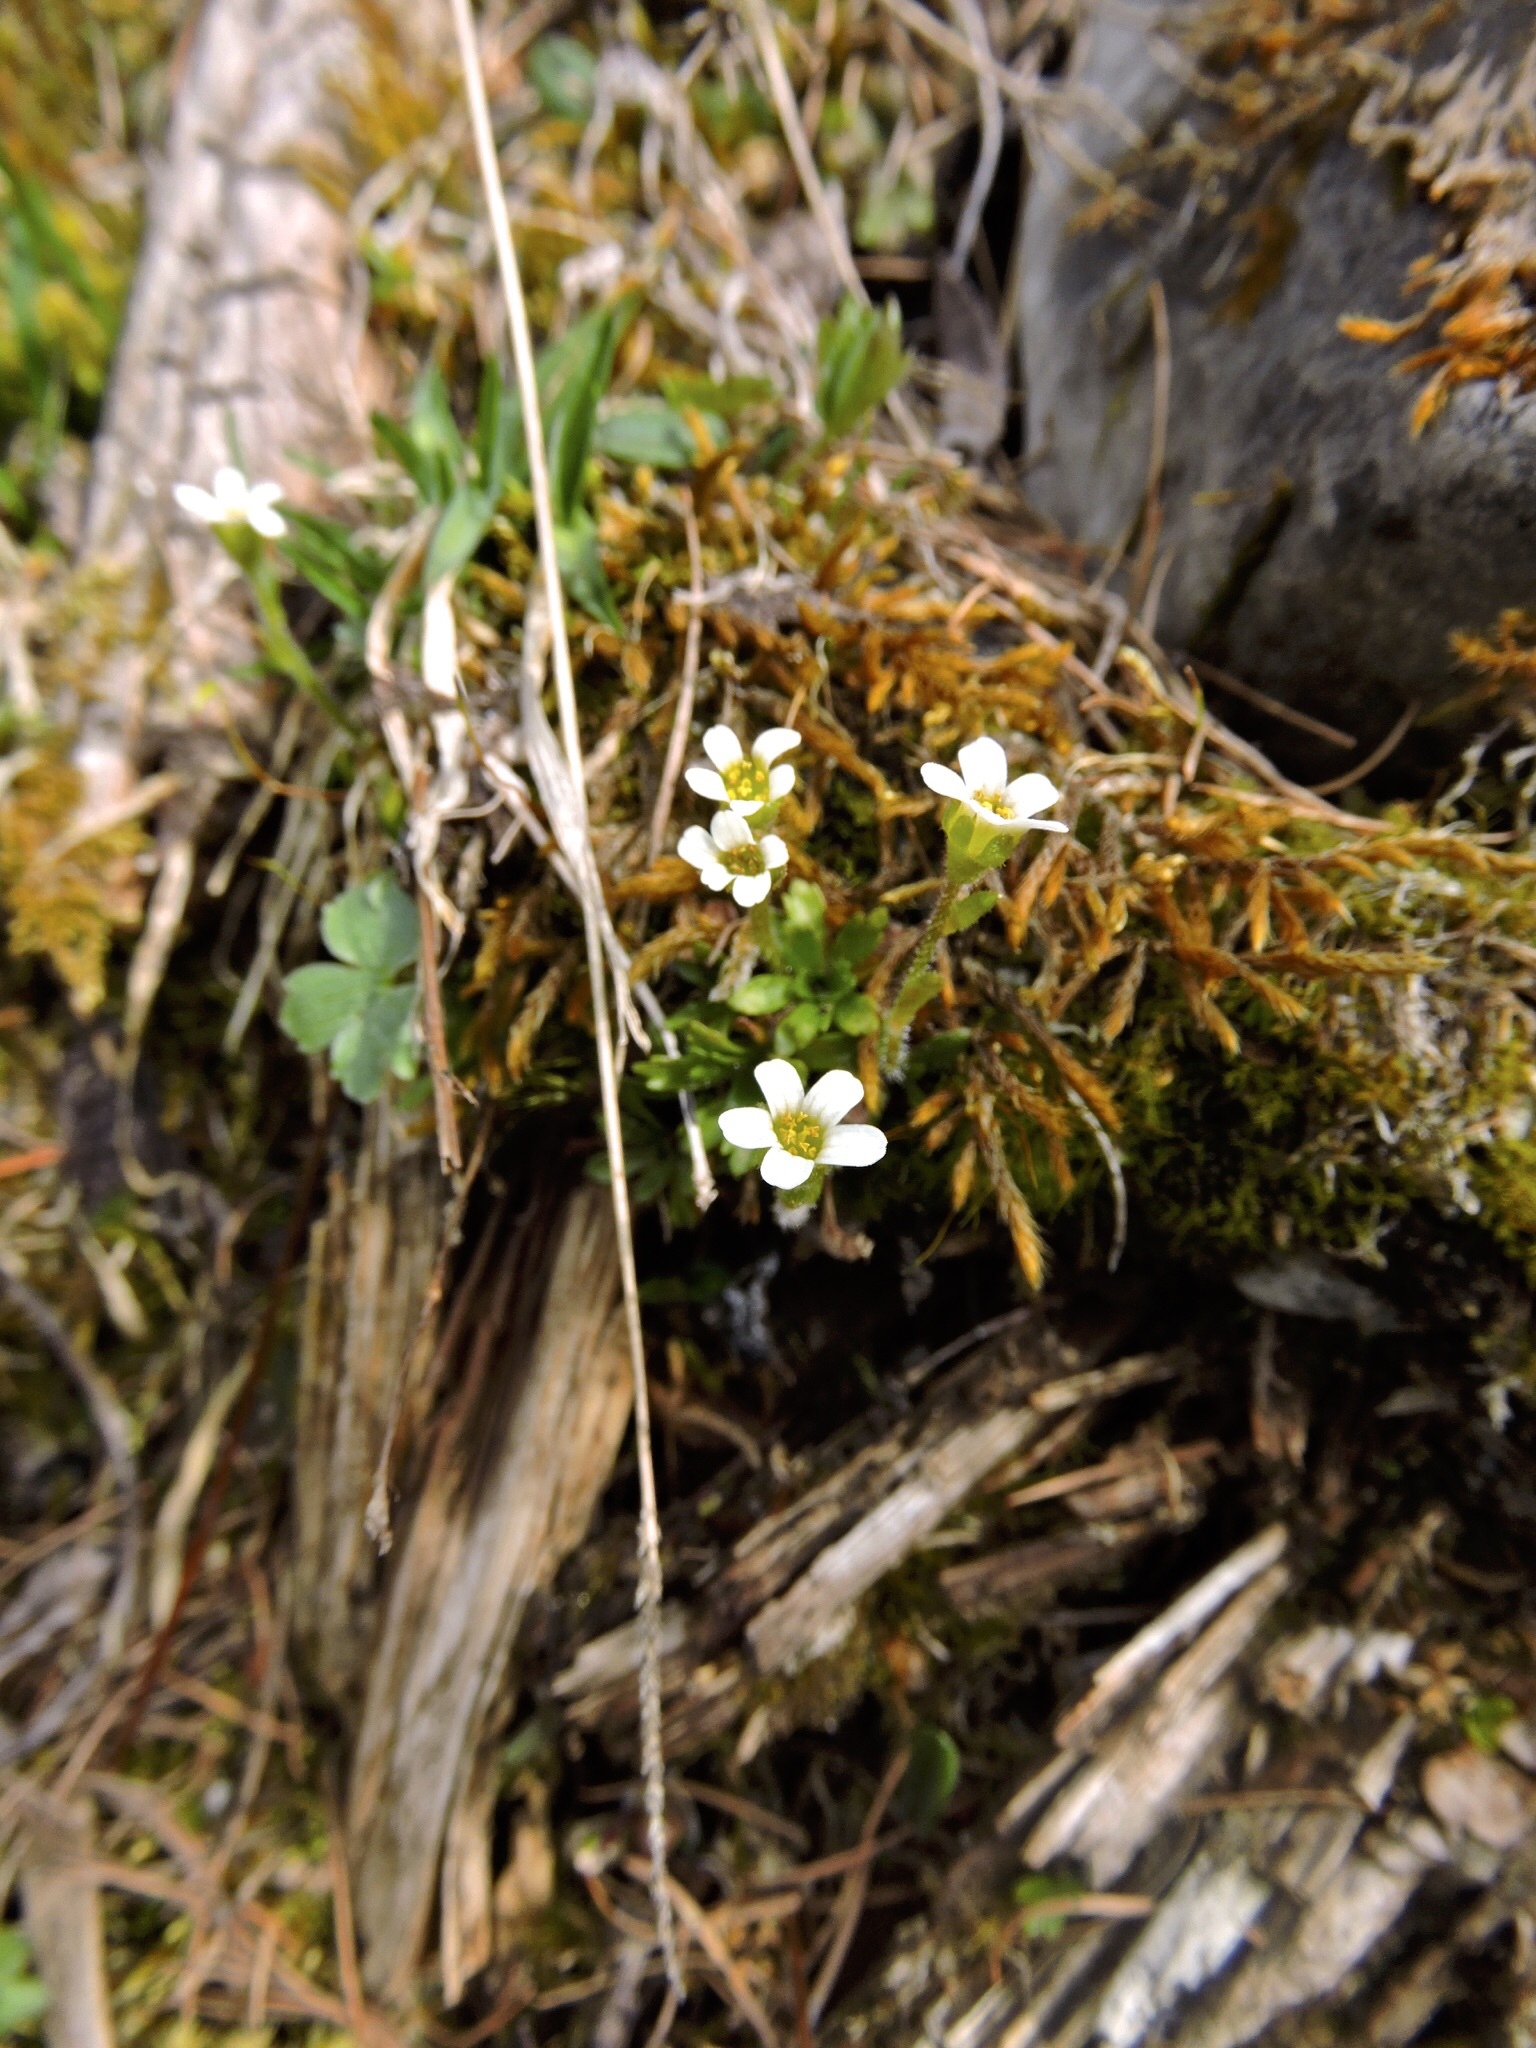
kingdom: Plantae
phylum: Tracheophyta
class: Magnoliopsida
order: Saxifragales
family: Saxifragaceae
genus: Saxifraga
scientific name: Saxifraga androsacea
